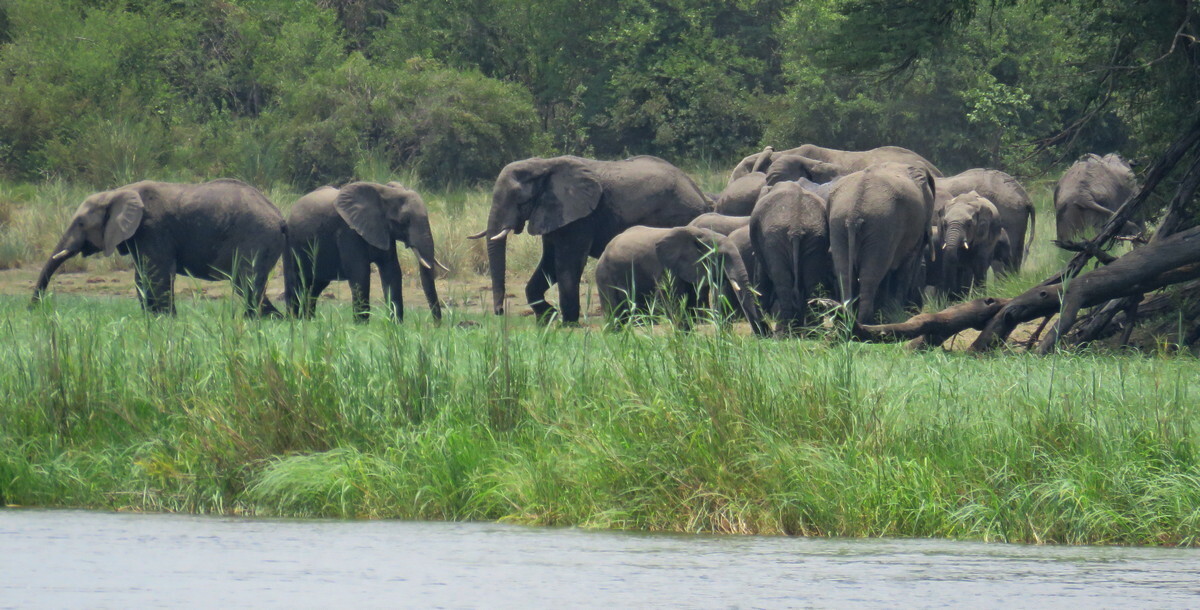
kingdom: Animalia
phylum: Chordata
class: Mammalia
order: Proboscidea
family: Elephantidae
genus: Loxodonta
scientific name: Loxodonta africana
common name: African elephant
